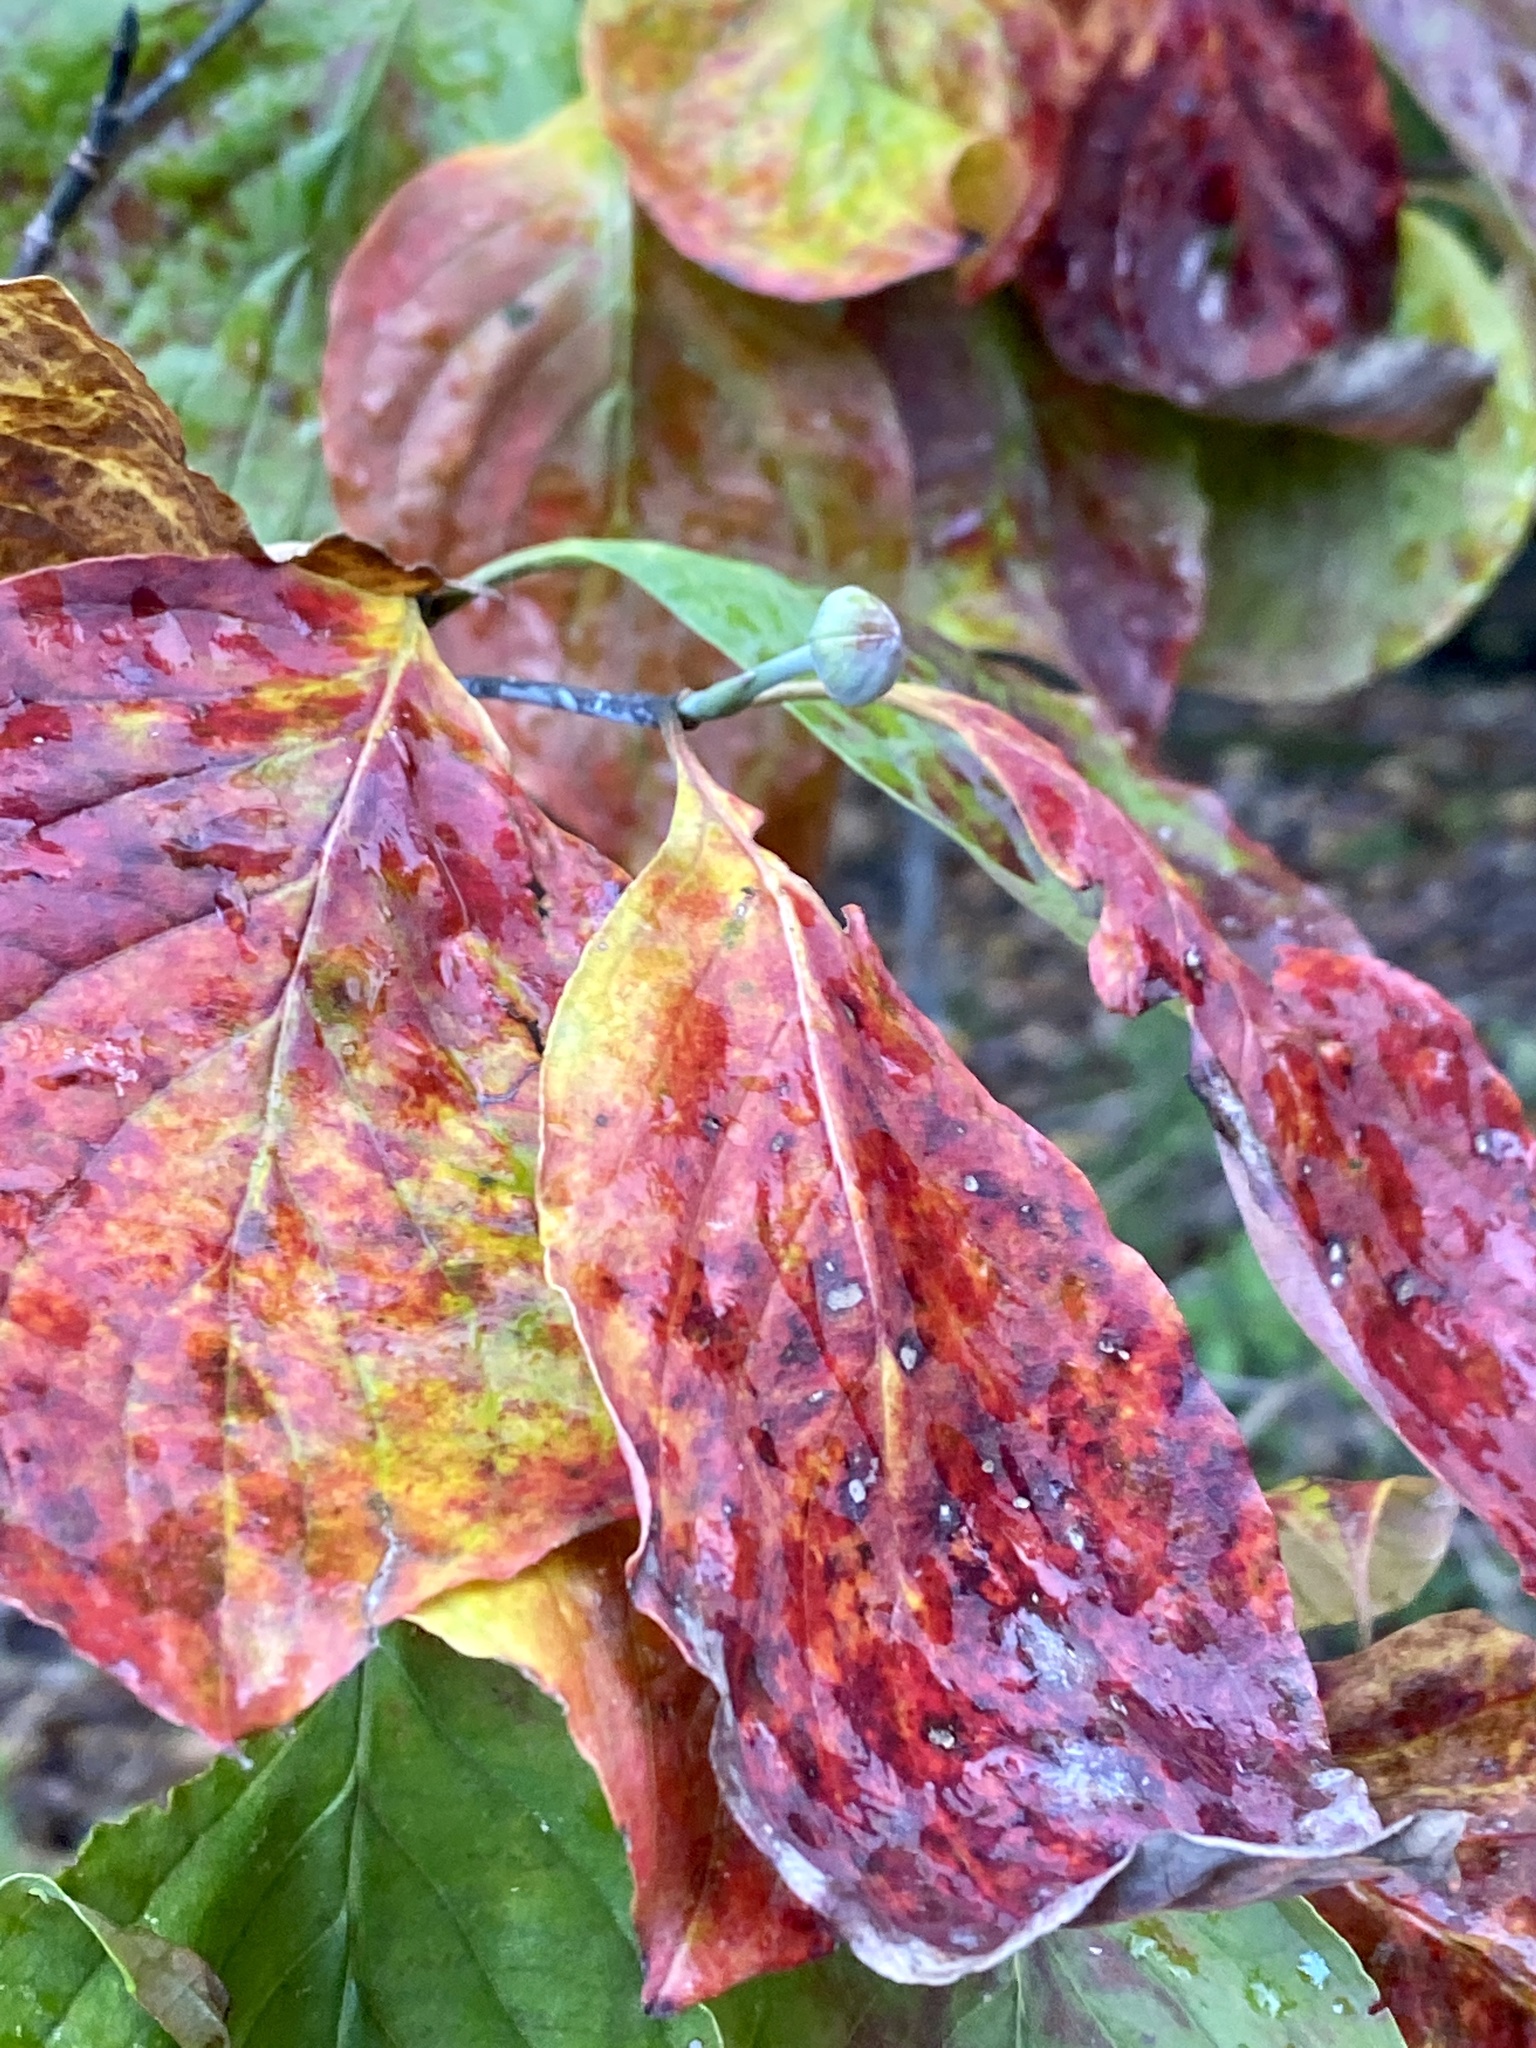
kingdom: Plantae
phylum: Tracheophyta
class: Magnoliopsida
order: Cornales
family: Cornaceae
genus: Cornus
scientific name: Cornus florida
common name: Flowering dogwood
